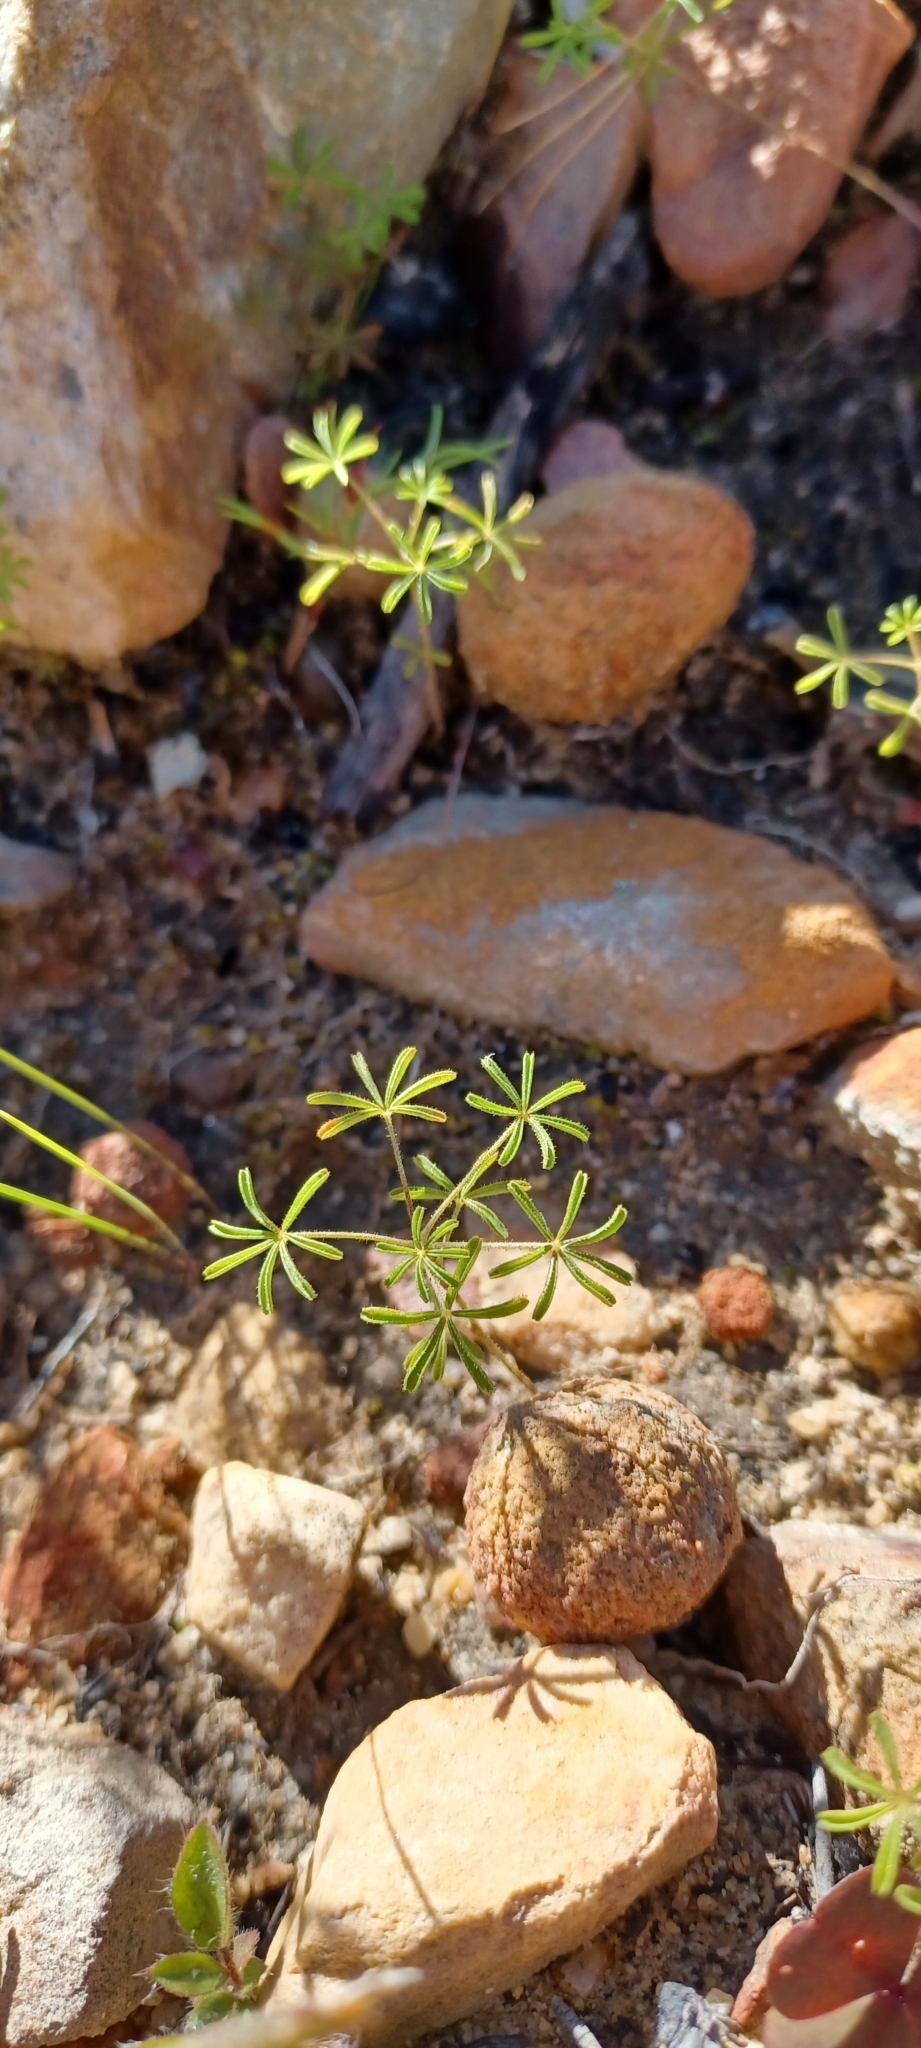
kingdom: Plantae
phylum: Tracheophyta
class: Magnoliopsida
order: Oxalidales
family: Oxalidaceae
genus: Oxalis
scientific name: Oxalis engleriana
